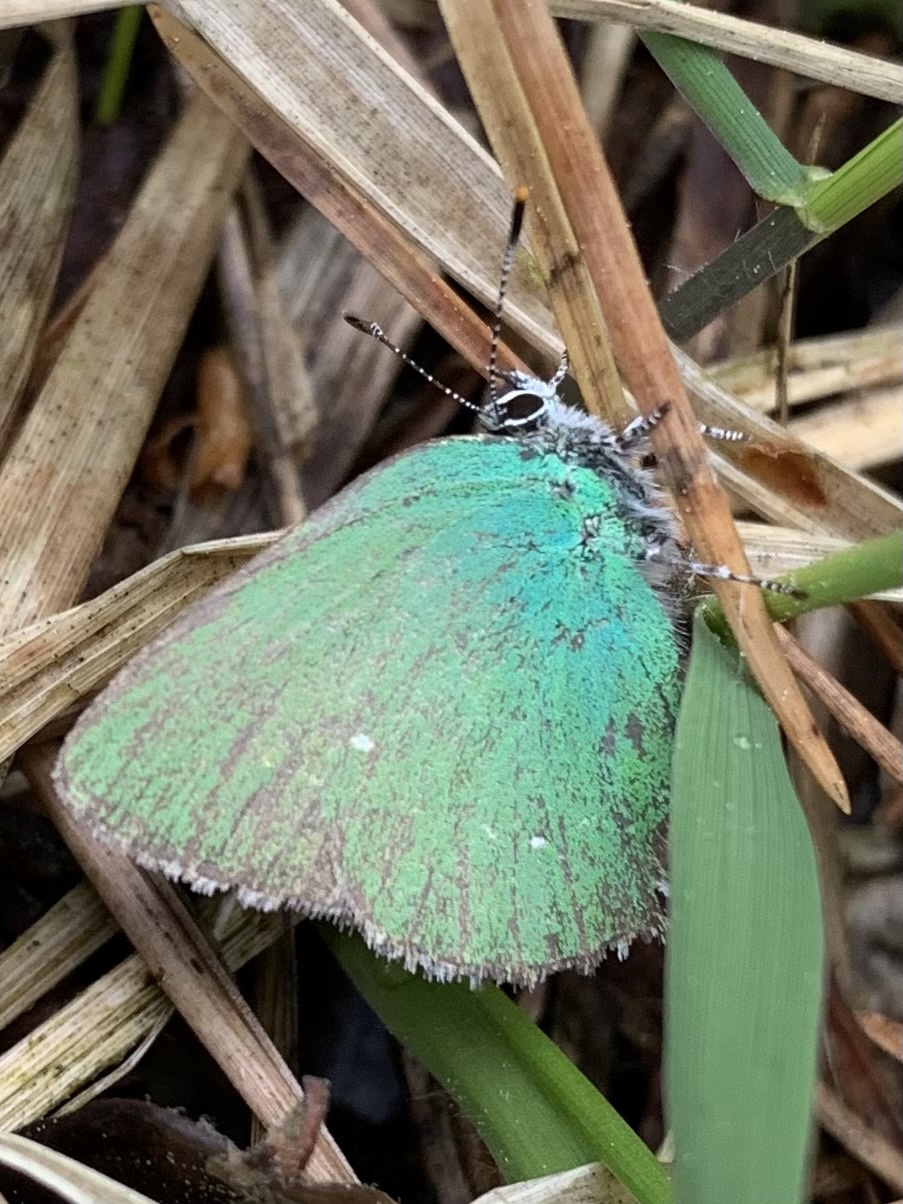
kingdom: Animalia
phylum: Arthropoda
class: Insecta
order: Lepidoptera
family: Lycaenidae
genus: Callophrys
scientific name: Callophrys rubi
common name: Green hairstreak
